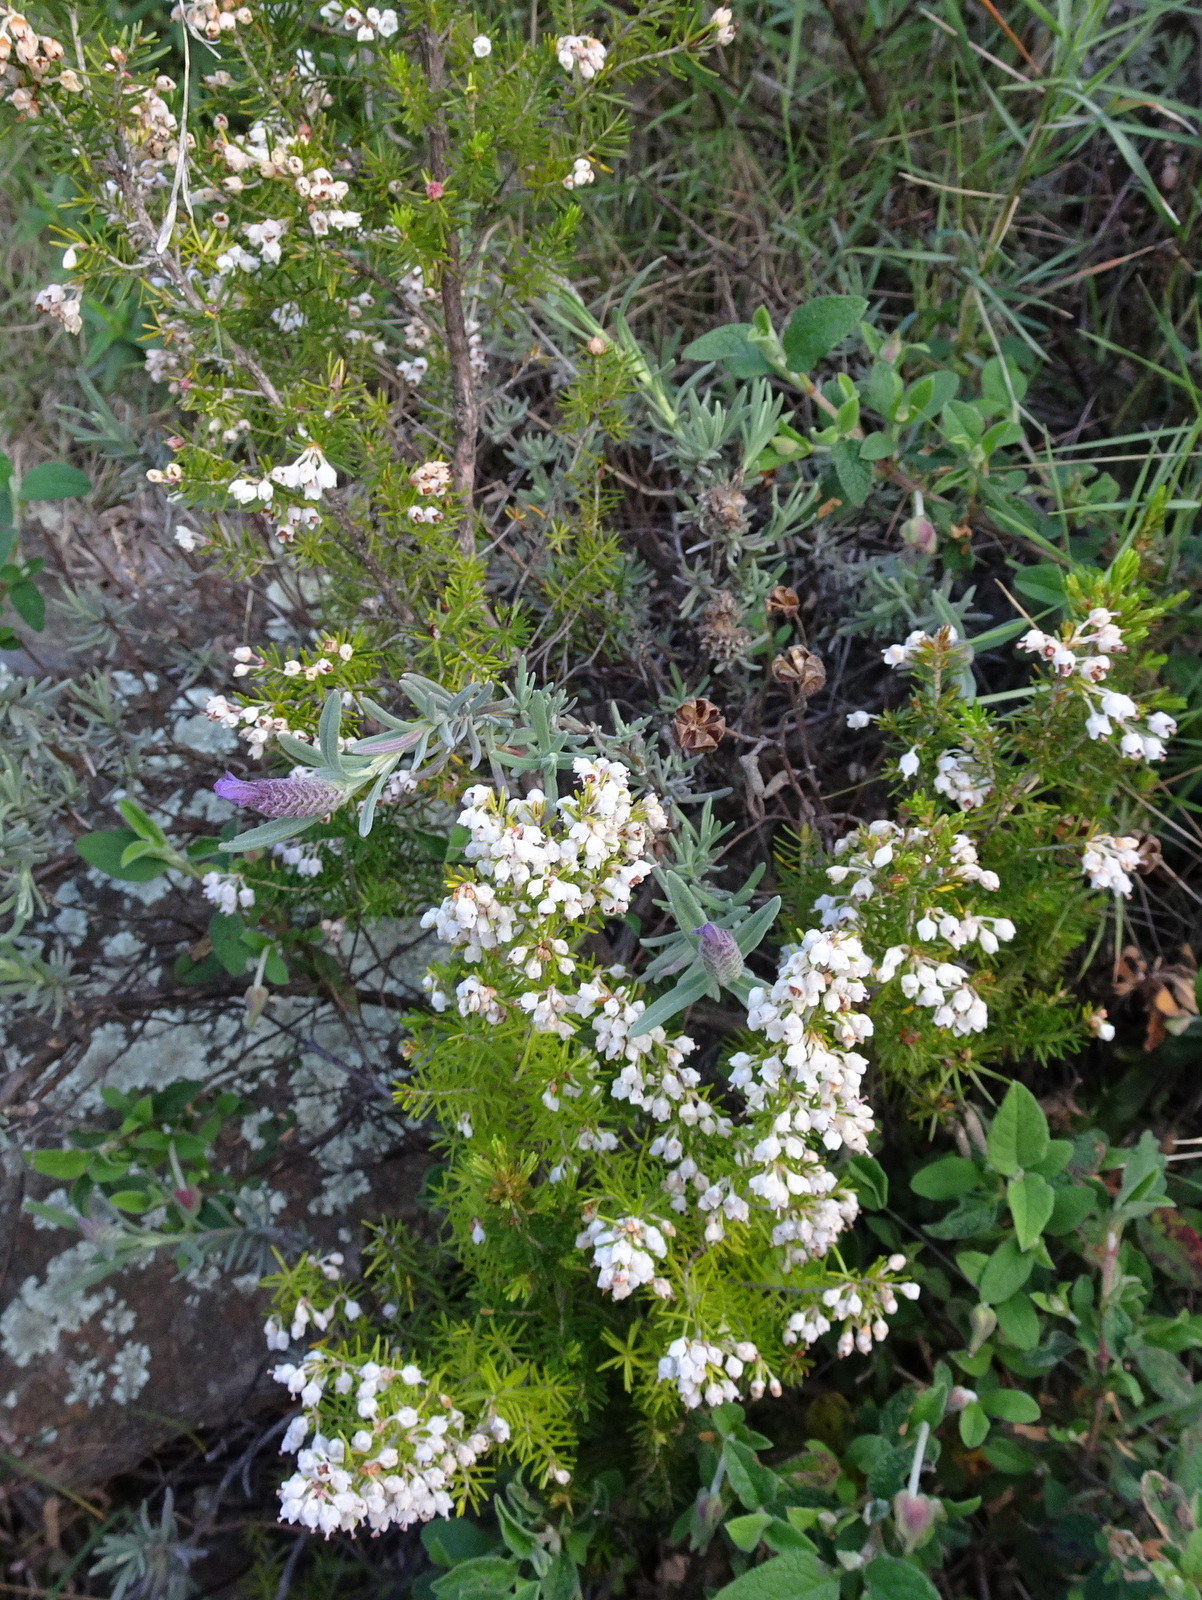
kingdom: Plantae
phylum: Tracheophyta
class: Magnoliopsida
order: Ericales
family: Ericaceae
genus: Erica
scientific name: Erica arborea
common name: Tree heath
